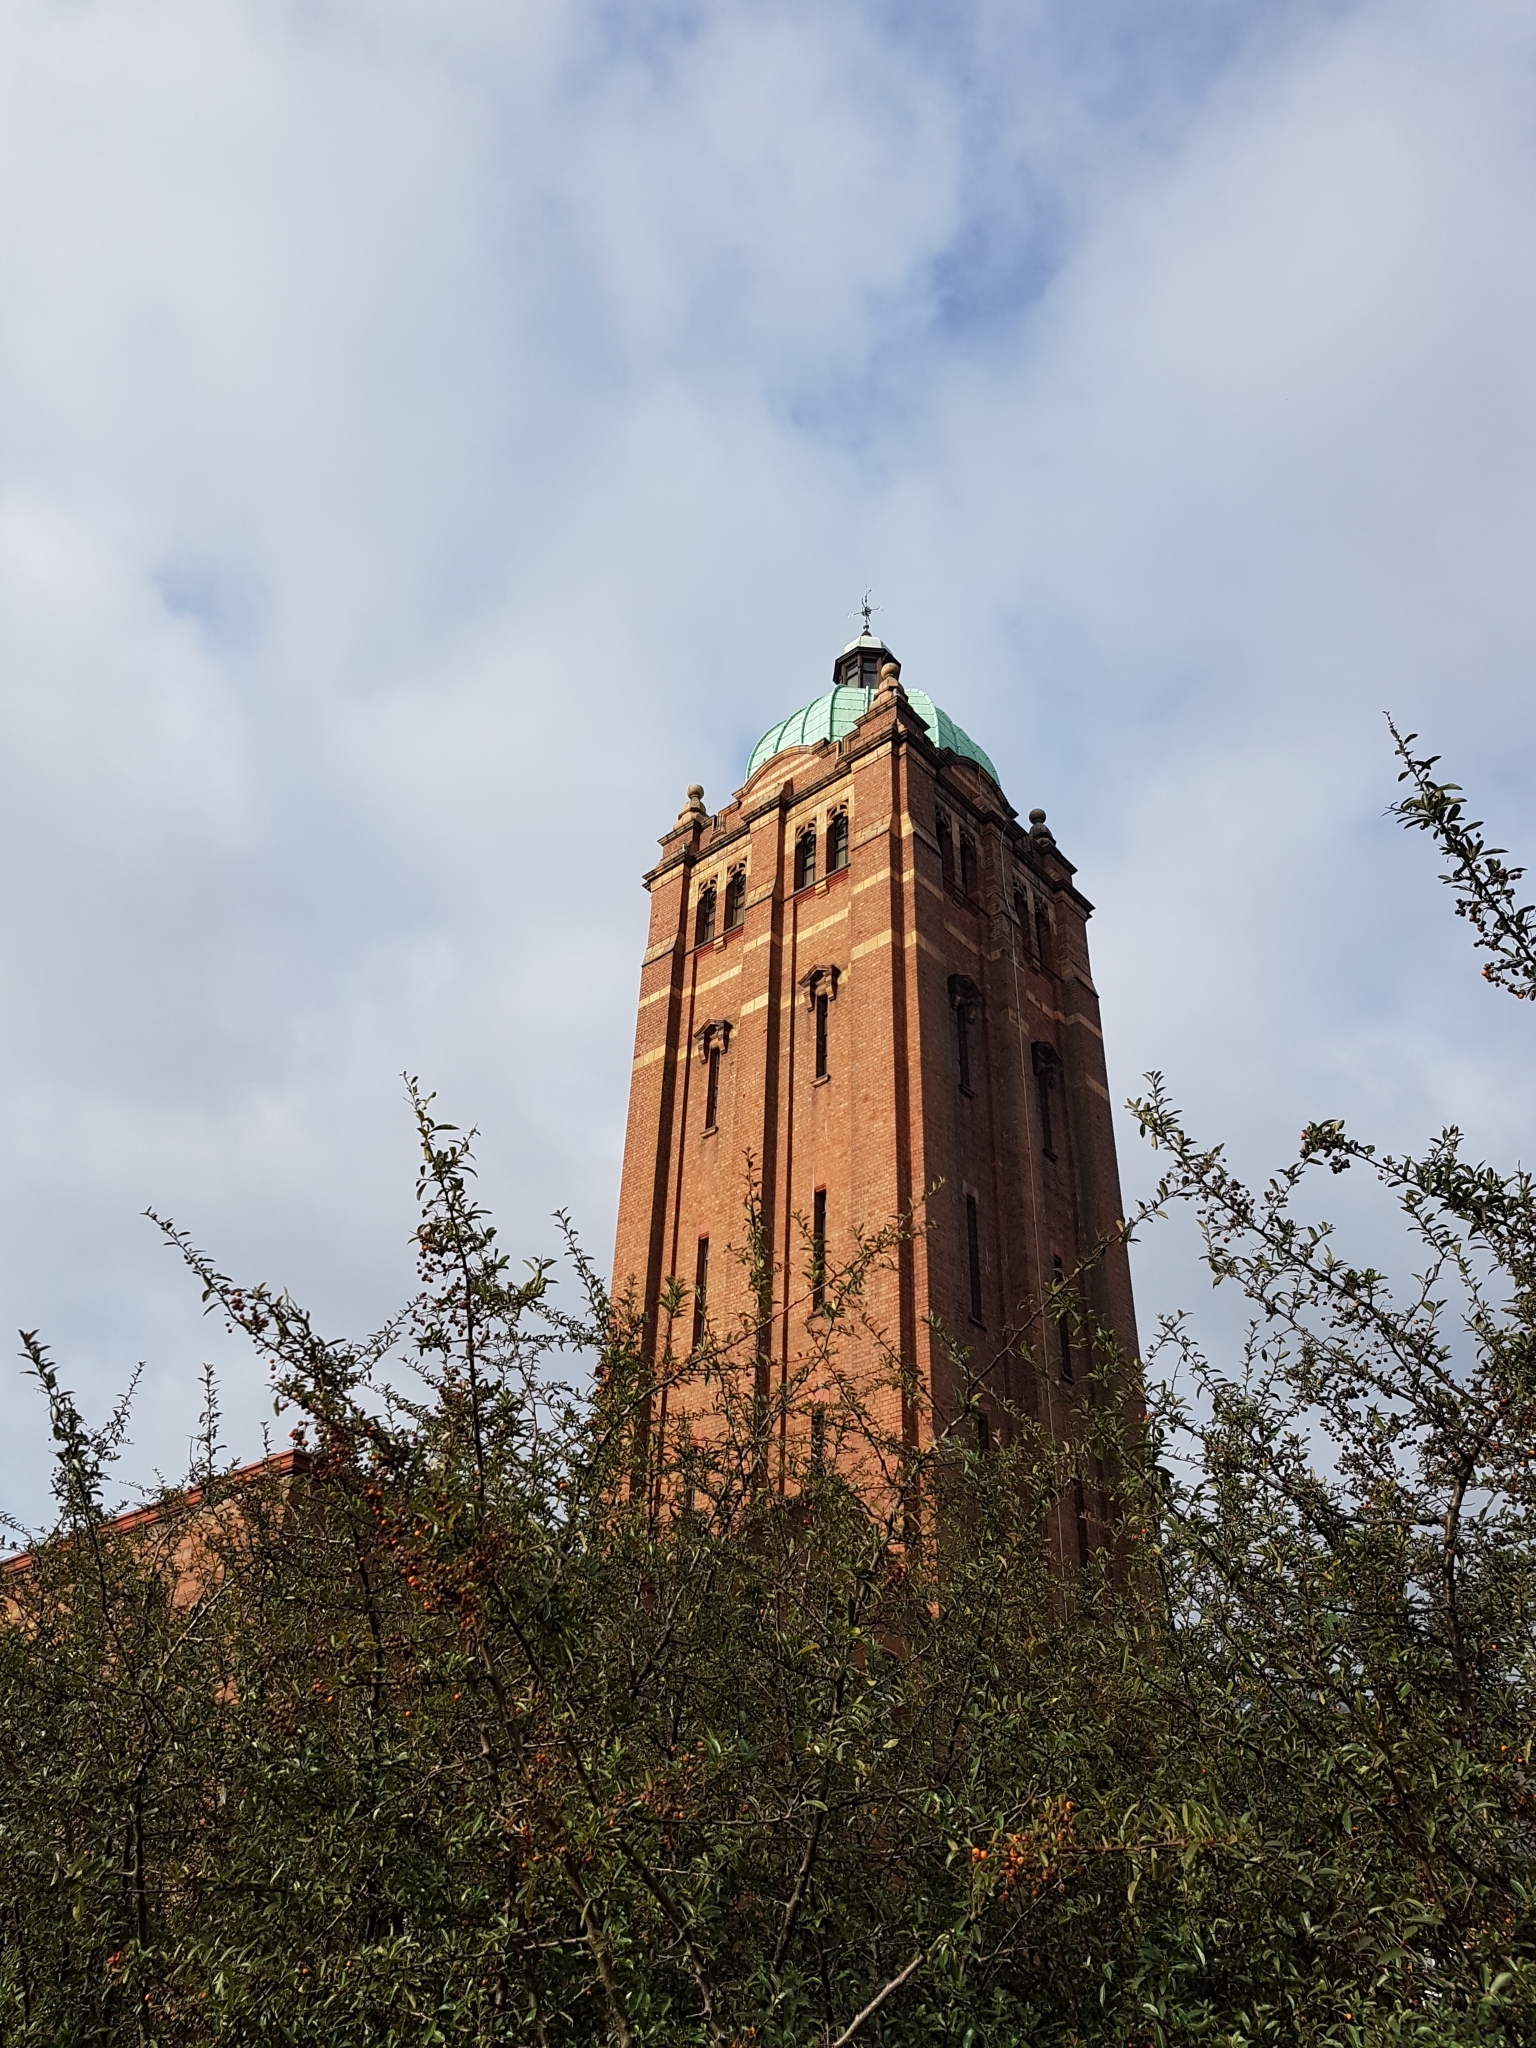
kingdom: Animalia
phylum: Chordata
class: Aves
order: Falconiformes
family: Falconidae
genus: Falco
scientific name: Falco peregrinus
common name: Peregrine falcon
